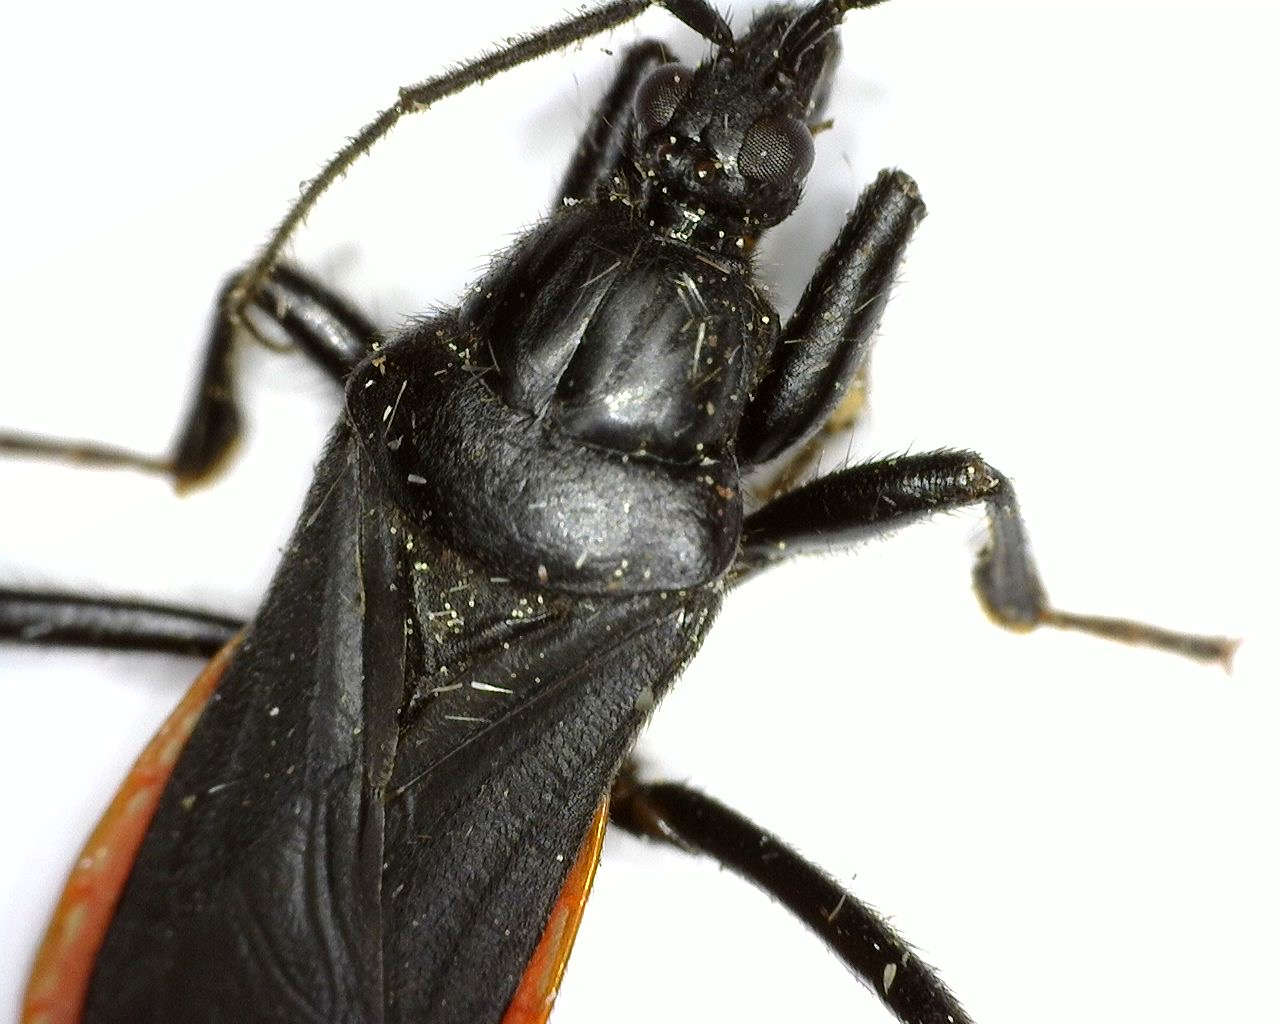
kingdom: Animalia
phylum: Arthropoda
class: Insecta
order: Hemiptera
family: Reduviidae
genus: Melanolestes
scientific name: Melanolestes picipes
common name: Assassin bug
